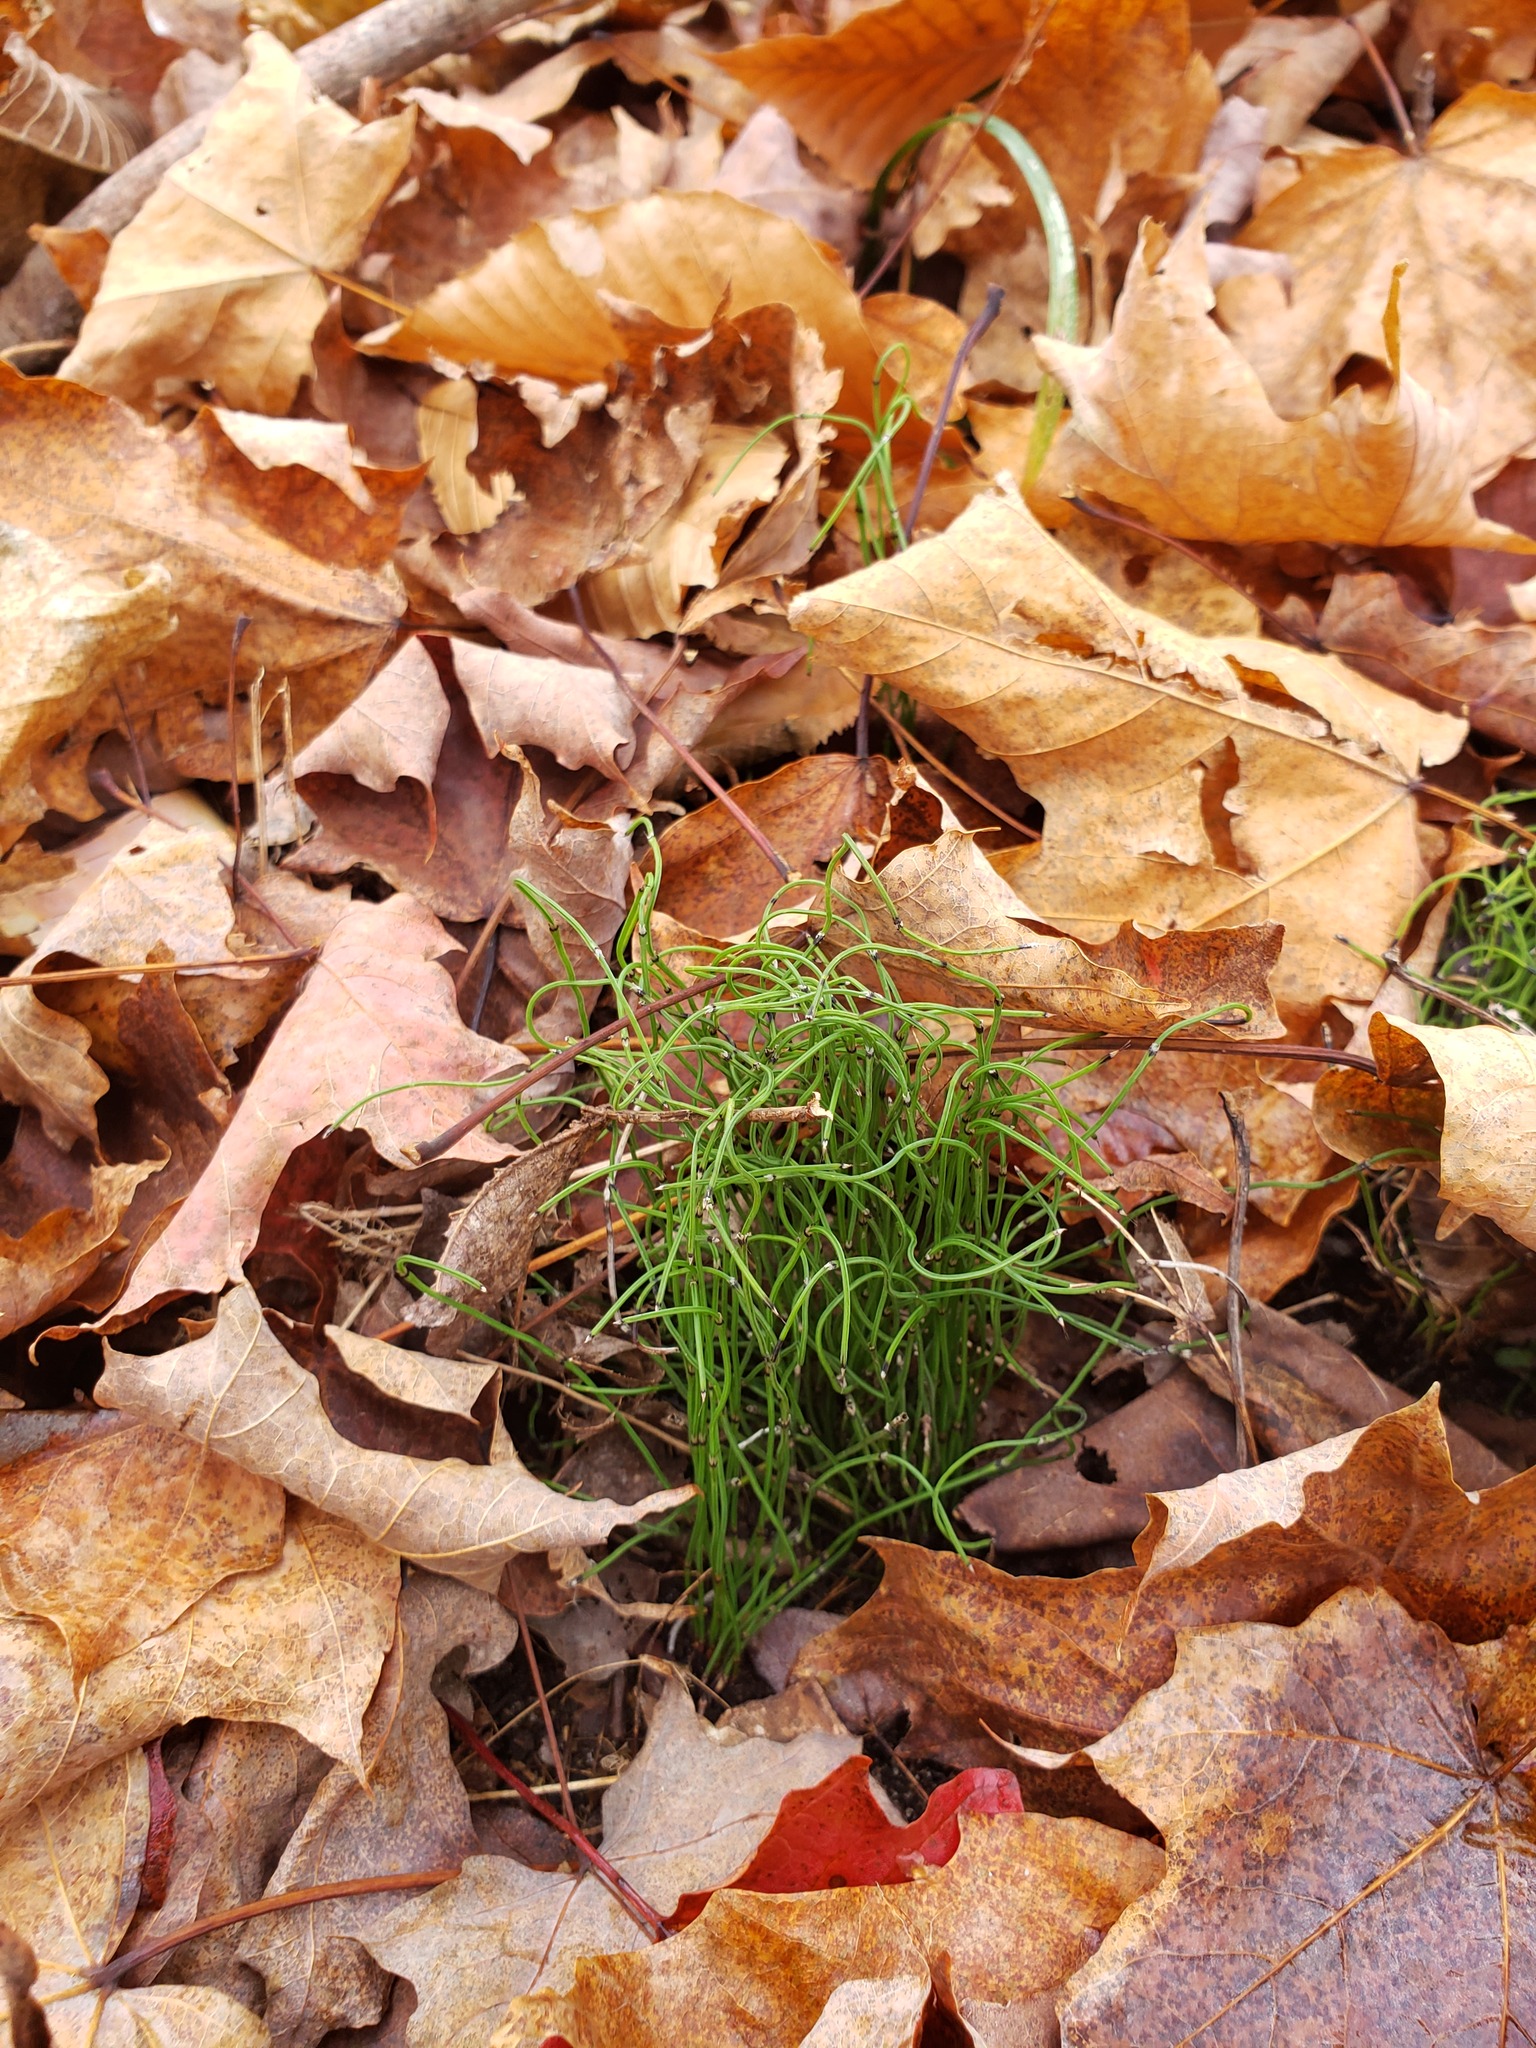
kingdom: Plantae
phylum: Tracheophyta
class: Polypodiopsida
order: Equisetales
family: Equisetaceae
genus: Equisetum
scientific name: Equisetum scirpoides
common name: Delicate horsetail
